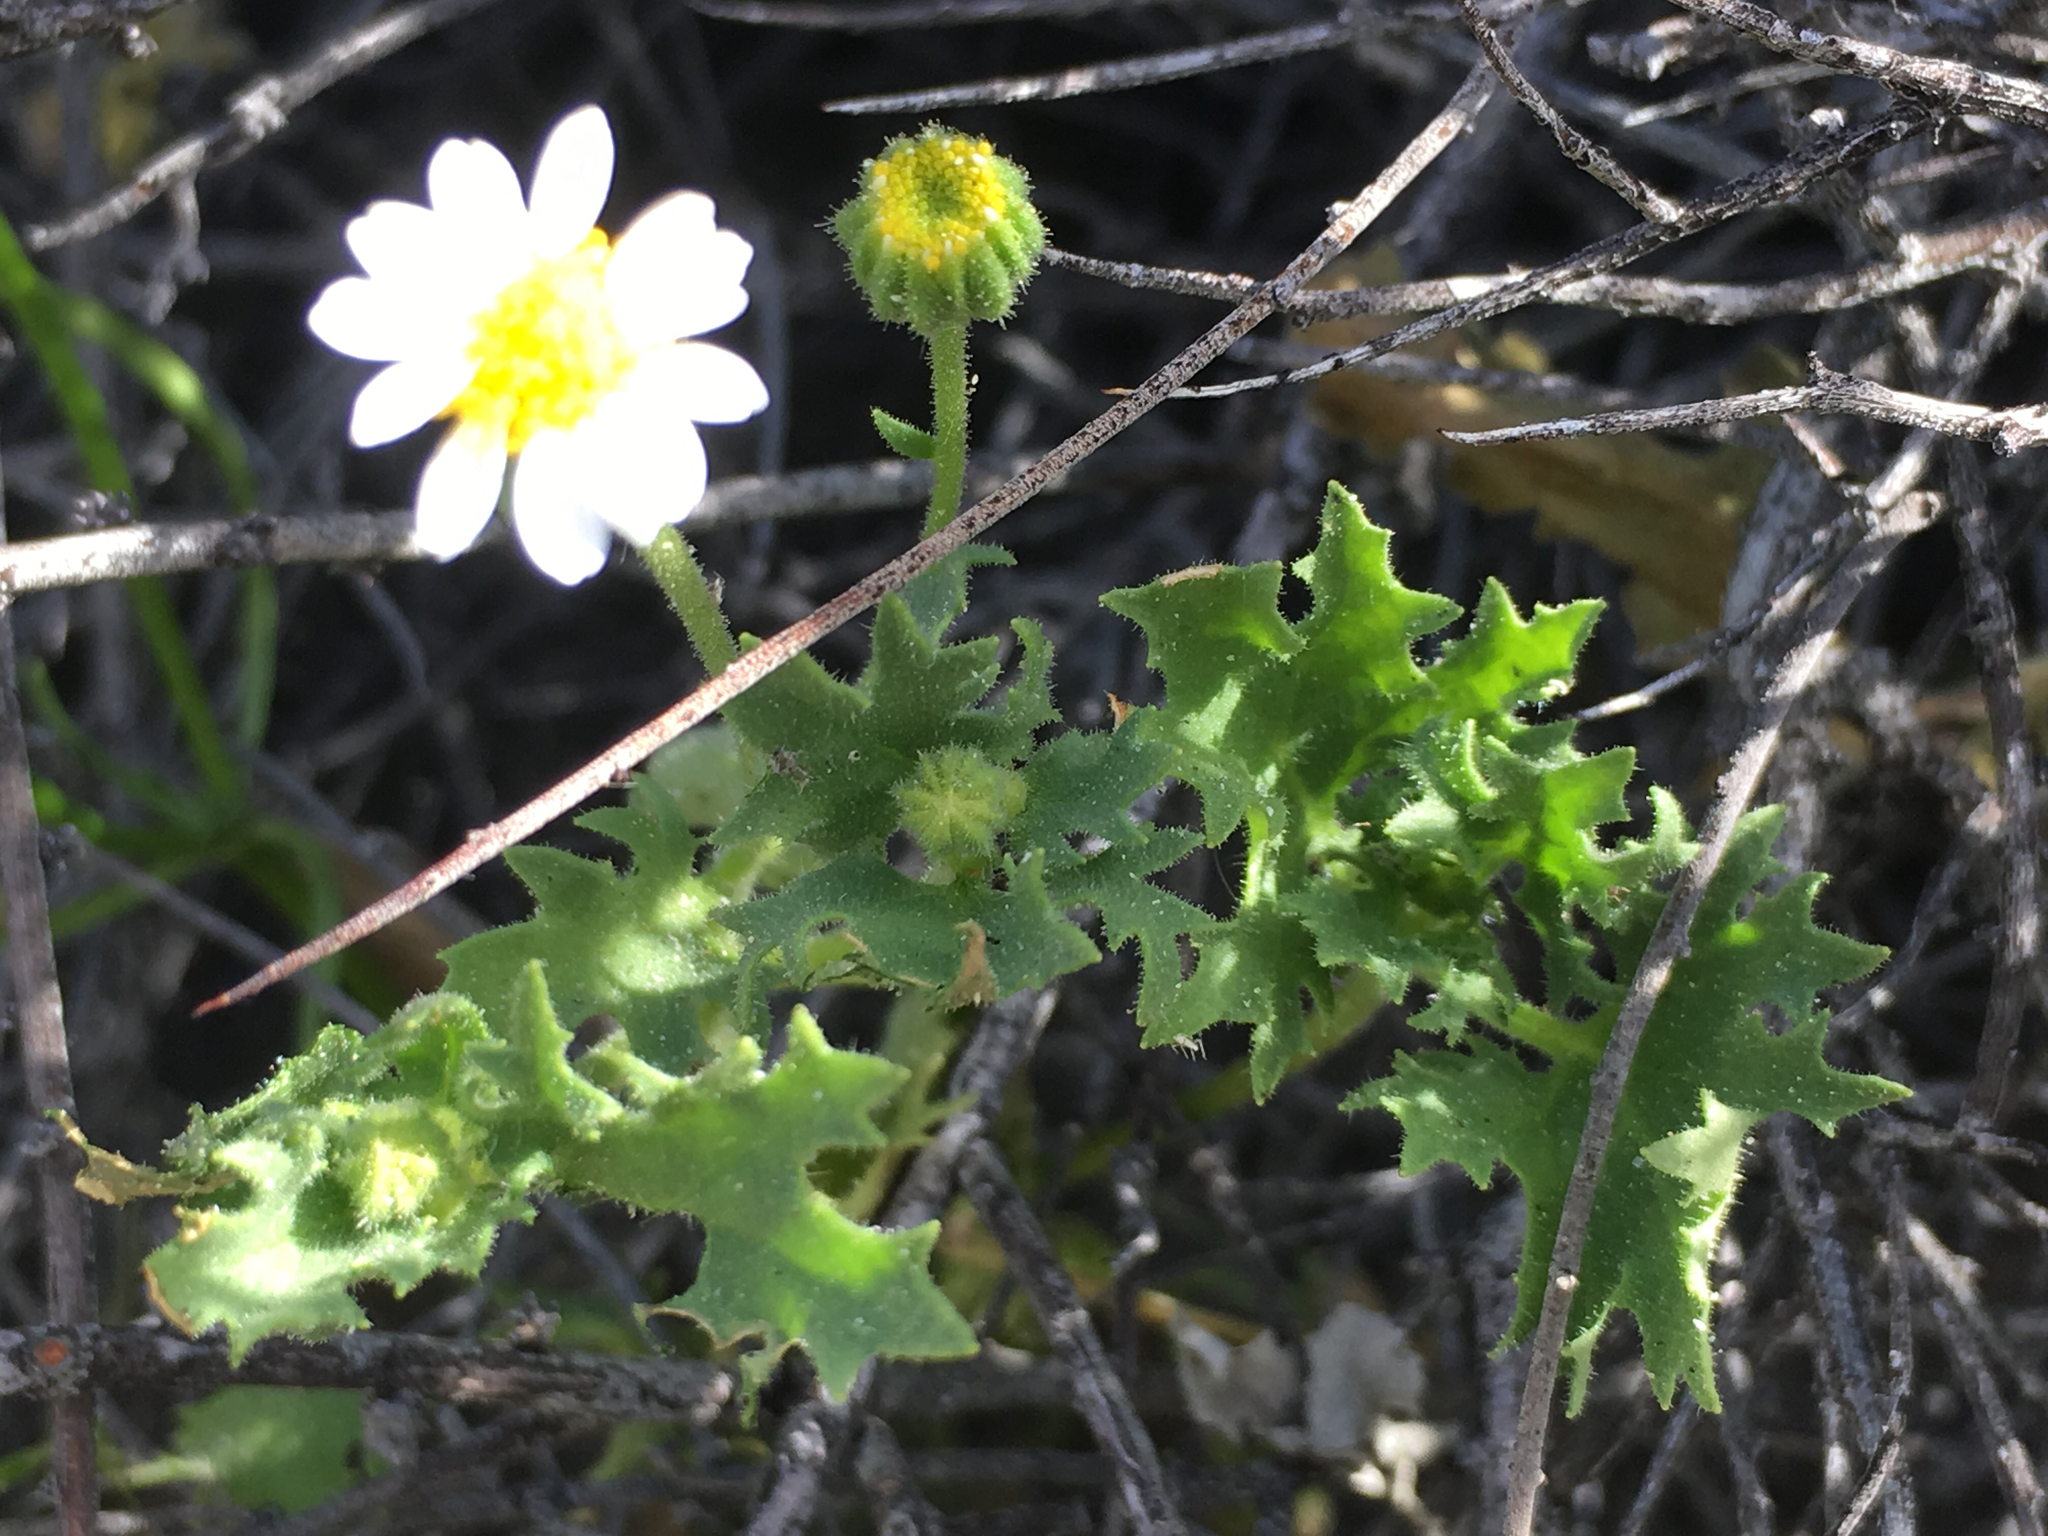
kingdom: Plantae
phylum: Tracheophyta
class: Magnoliopsida
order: Asterales
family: Asteraceae
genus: Laphamia
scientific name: Laphamia emoryi
